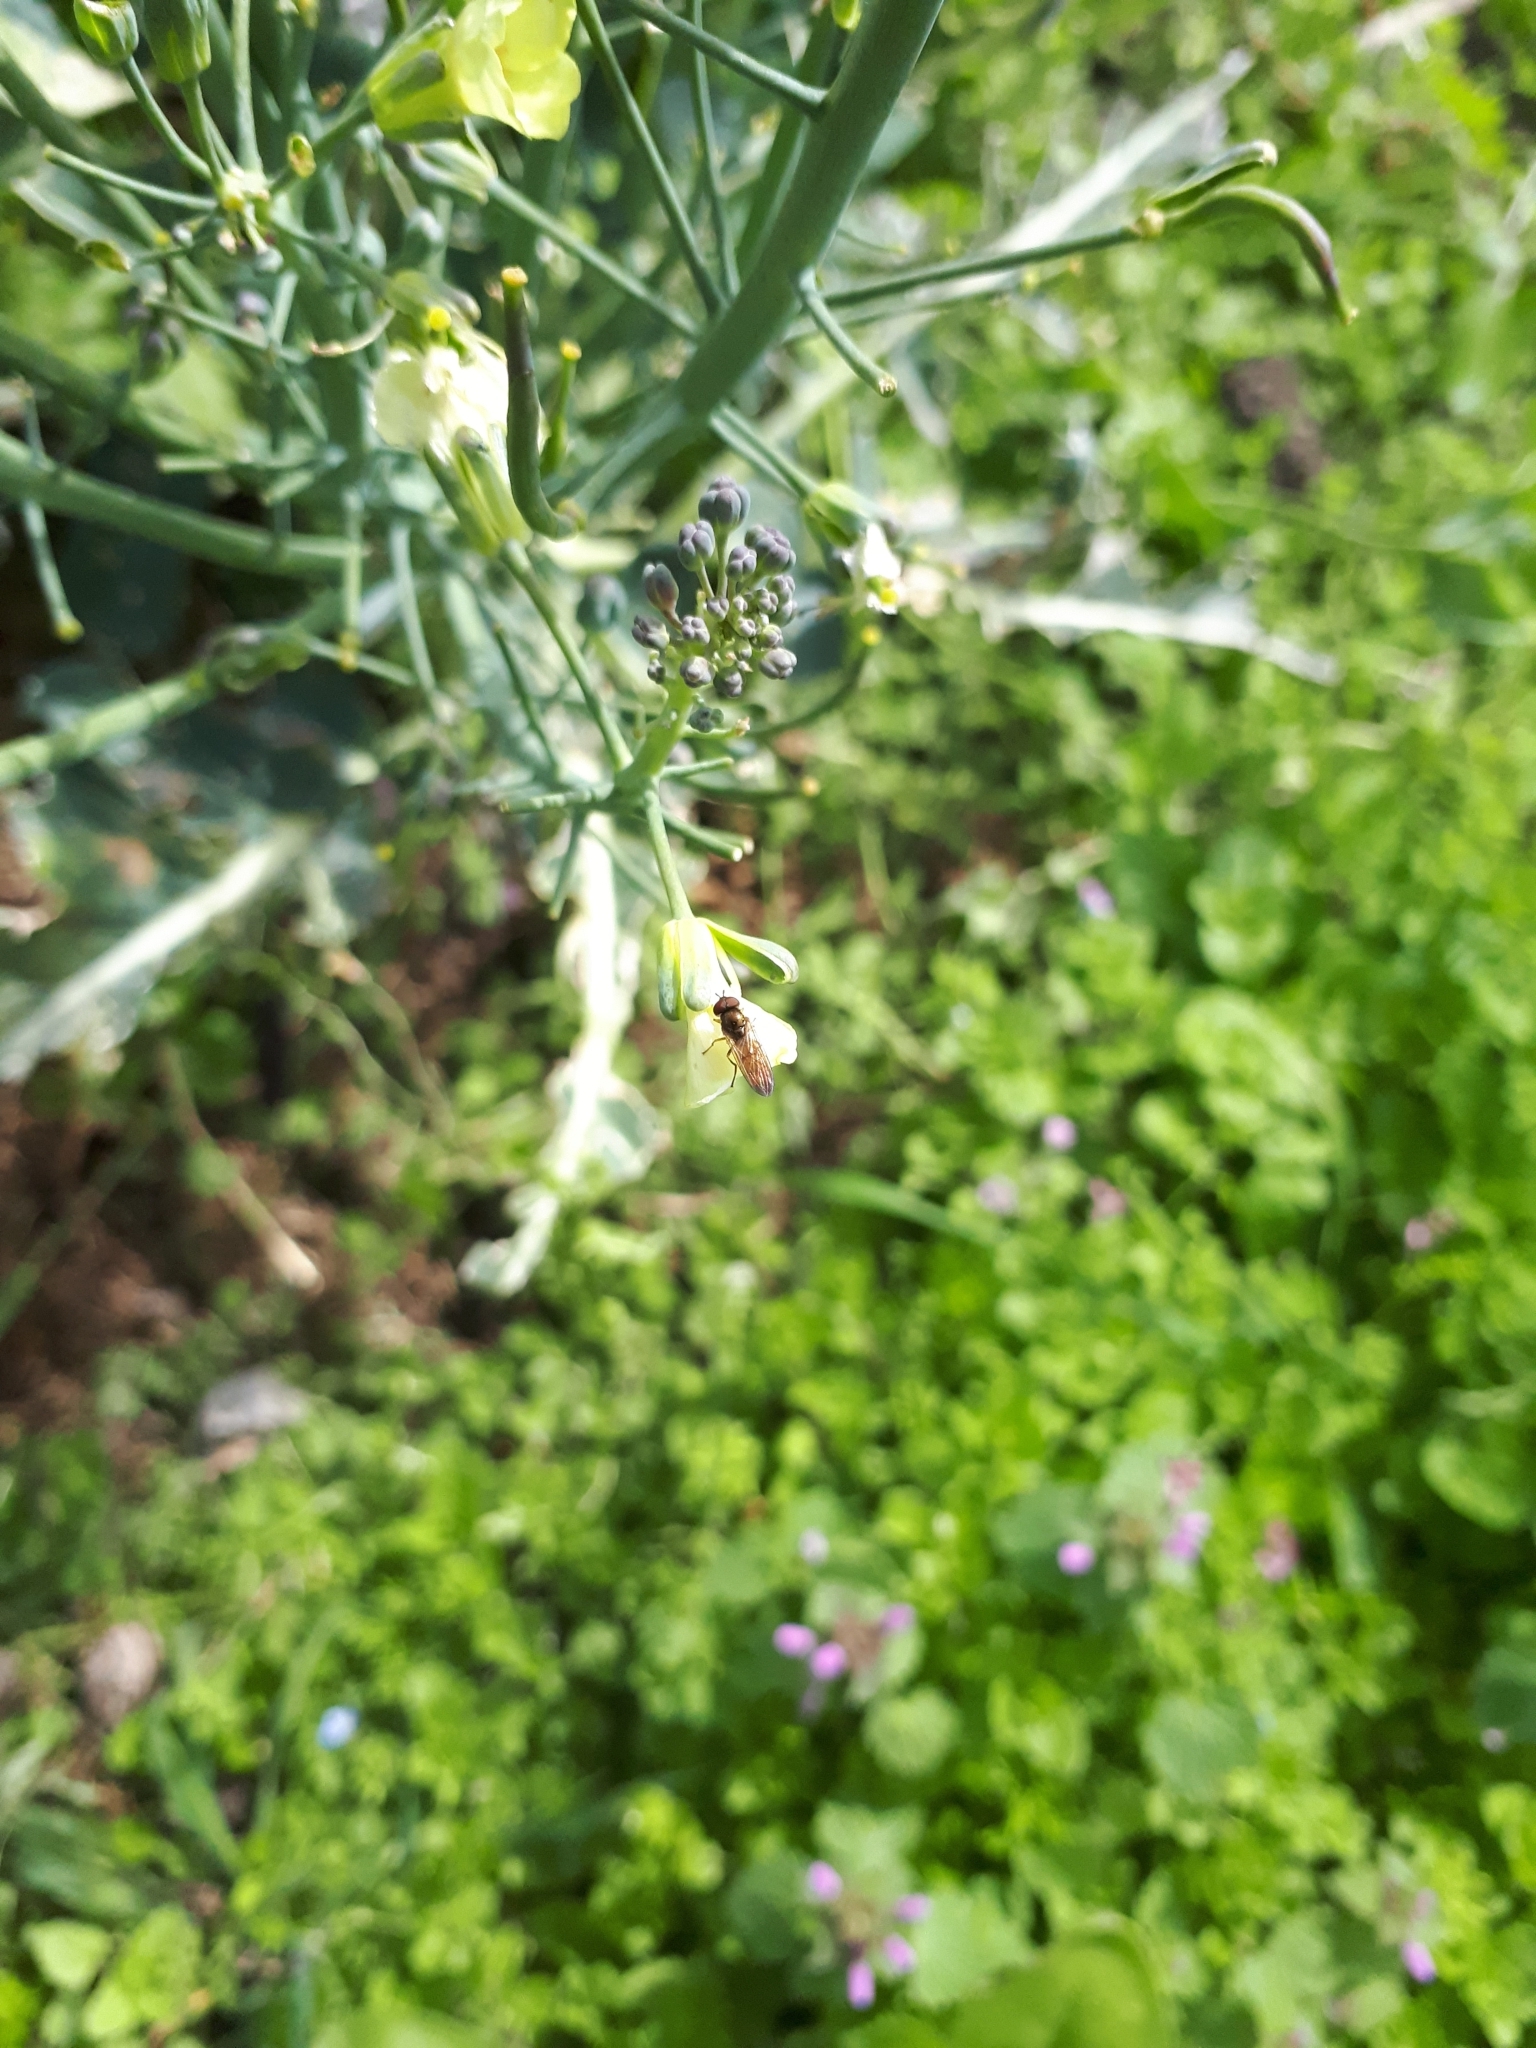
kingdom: Animalia
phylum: Arthropoda
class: Insecta
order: Diptera
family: Syrphidae
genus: Melanostoma
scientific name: Melanostoma fasciatum
